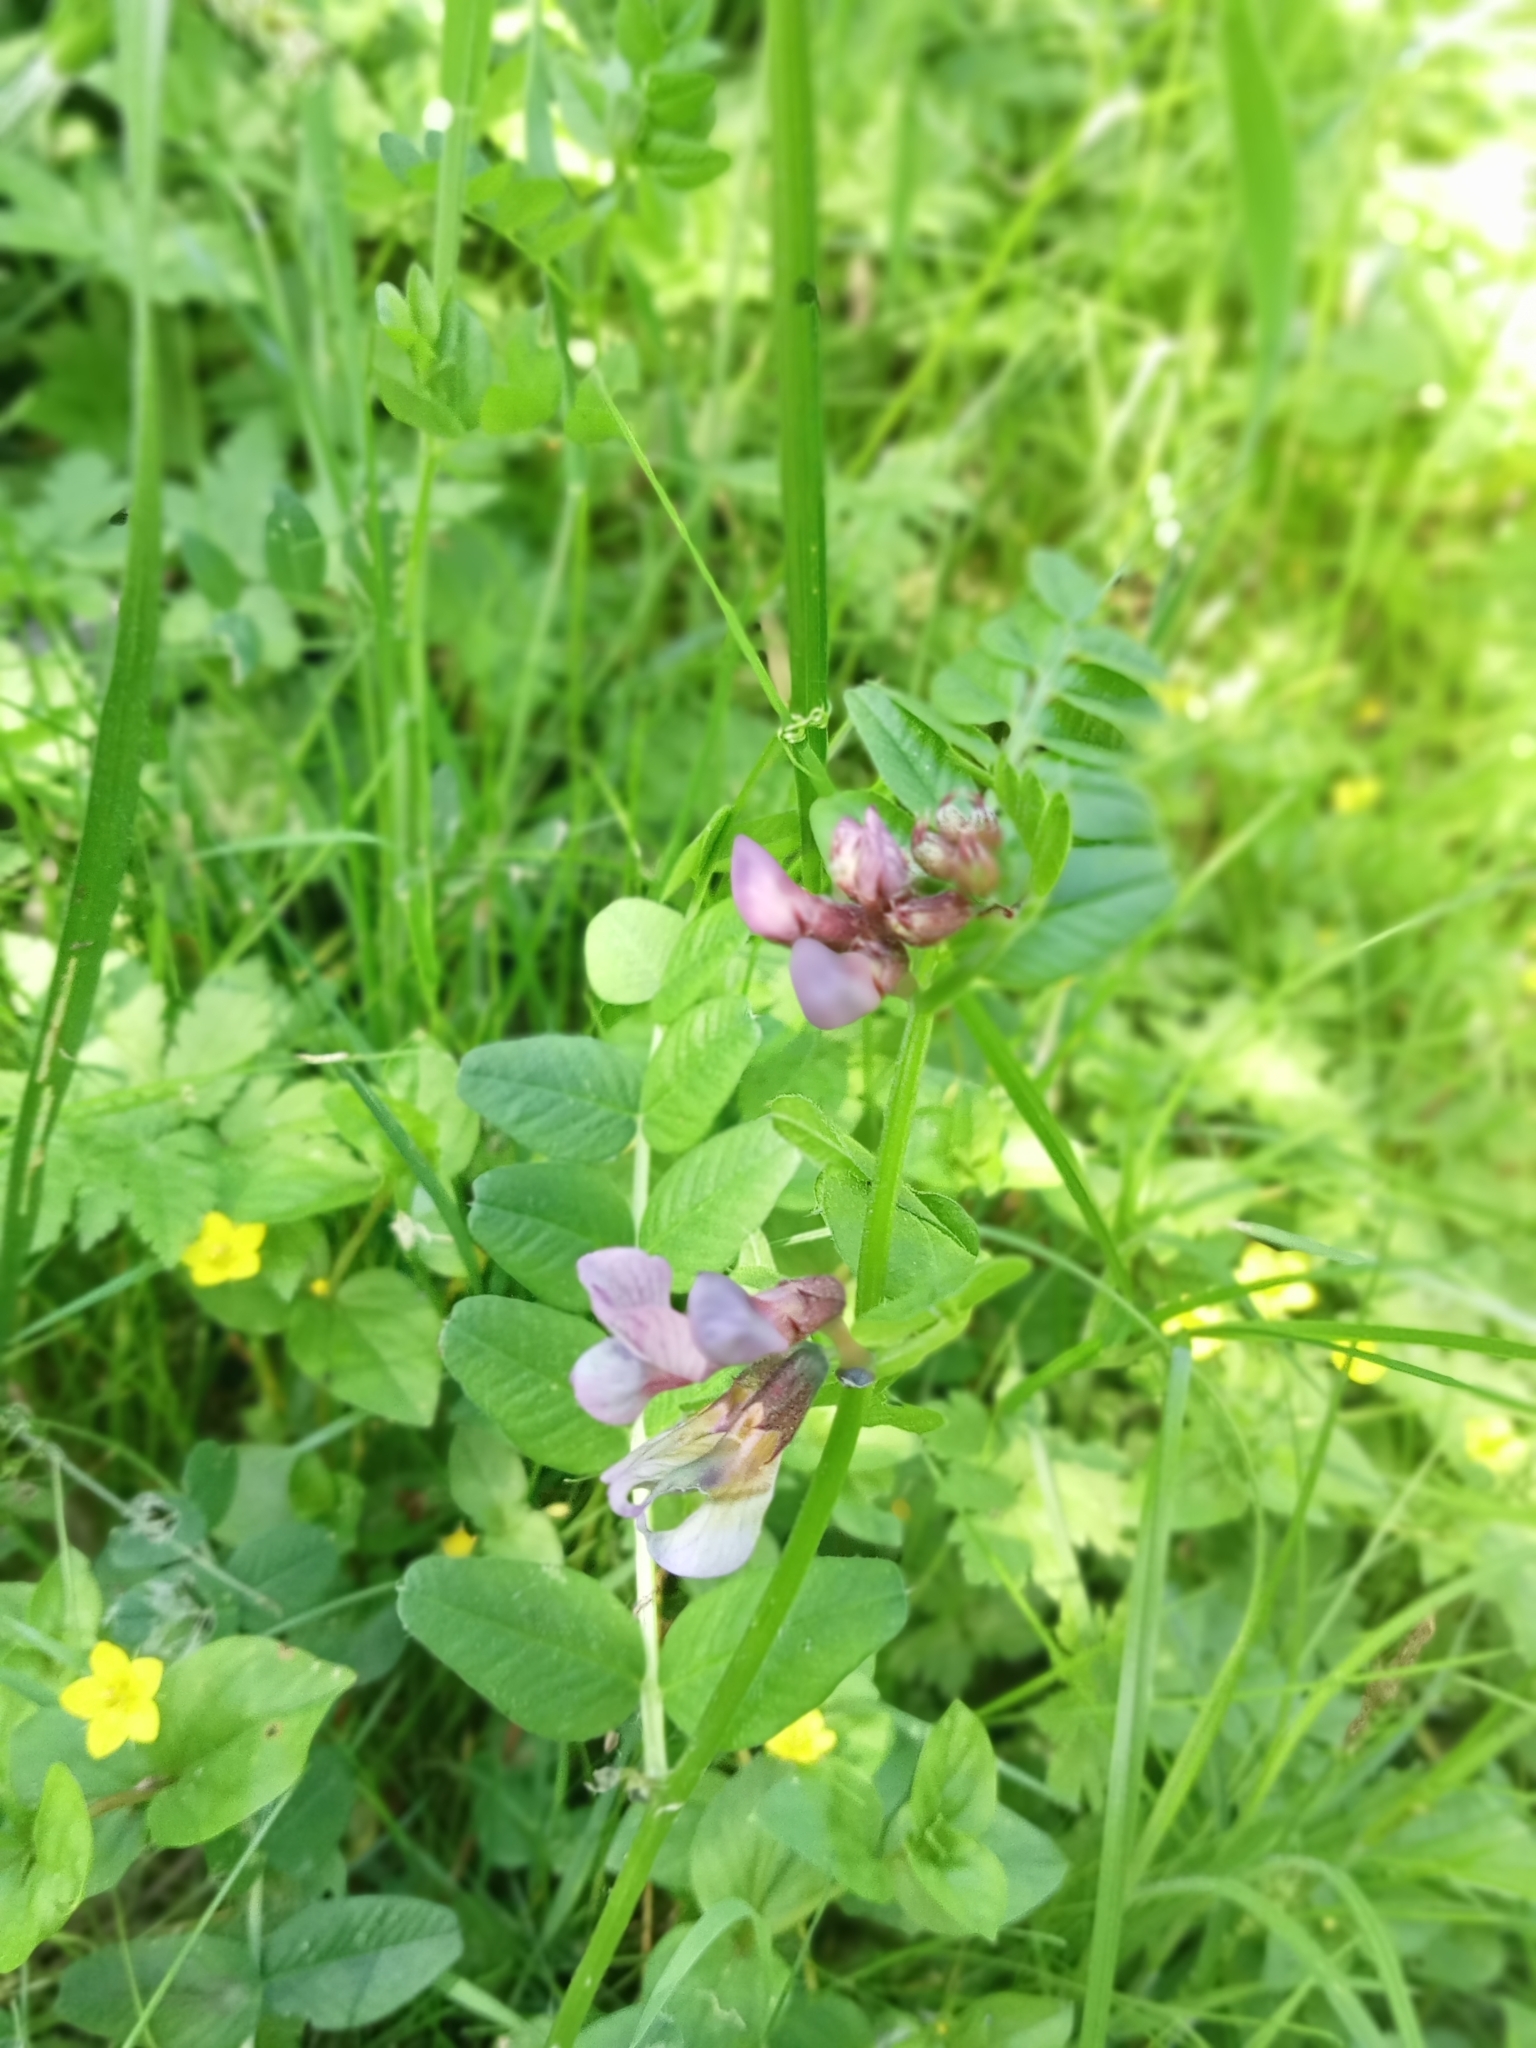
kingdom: Plantae
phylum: Tracheophyta
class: Magnoliopsida
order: Fabales
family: Fabaceae
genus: Vicia
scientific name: Vicia sepium
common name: Bush vetch
